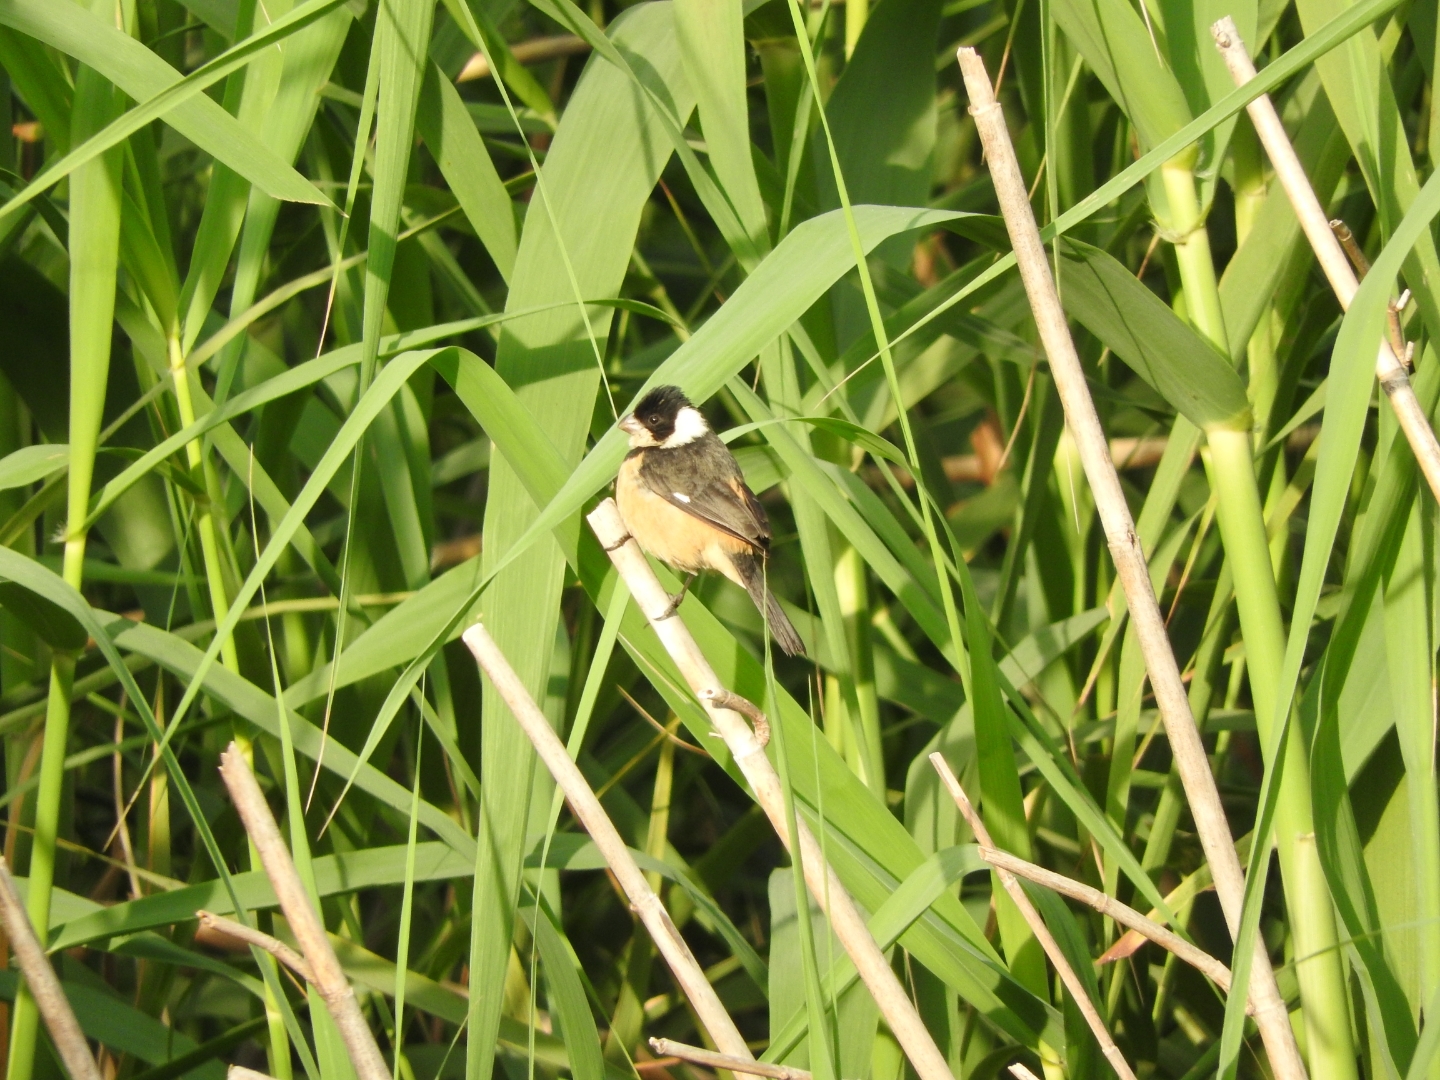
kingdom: Animalia
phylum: Chordata
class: Aves
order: Passeriformes
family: Thraupidae
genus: Sporophila
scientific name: Sporophila torqueola
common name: White-collared seedeater
